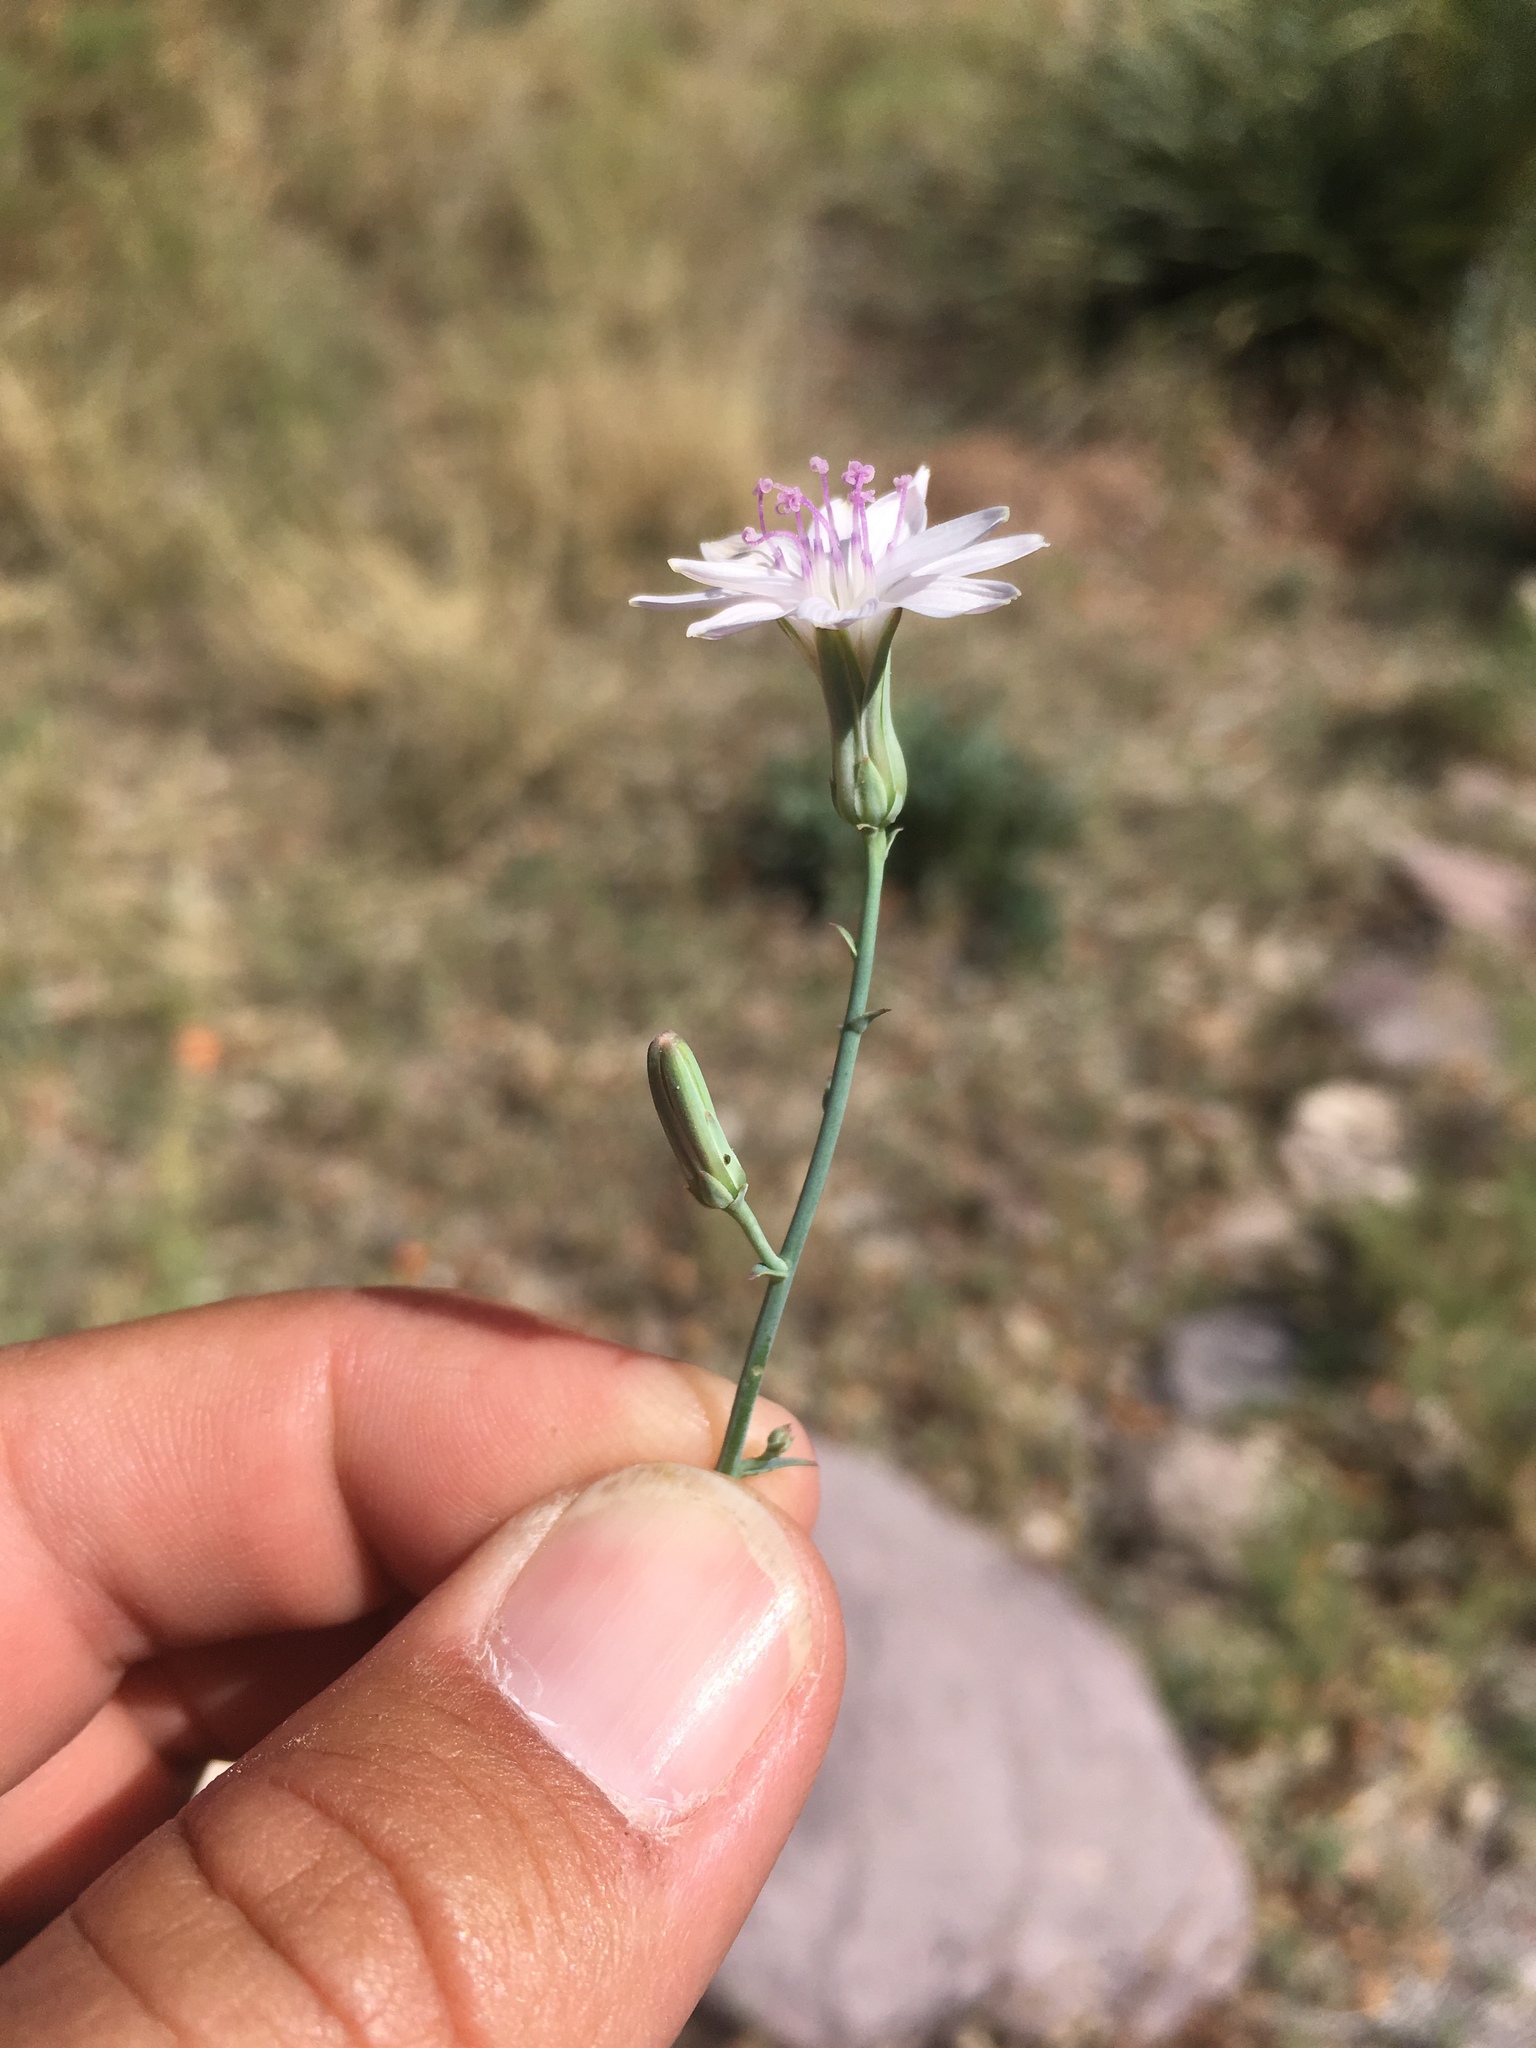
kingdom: Plantae
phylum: Tracheophyta
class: Magnoliopsida
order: Asterales
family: Asteraceae
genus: Stephanomeria
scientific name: Stephanomeria exigua
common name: Small wirelettuce
